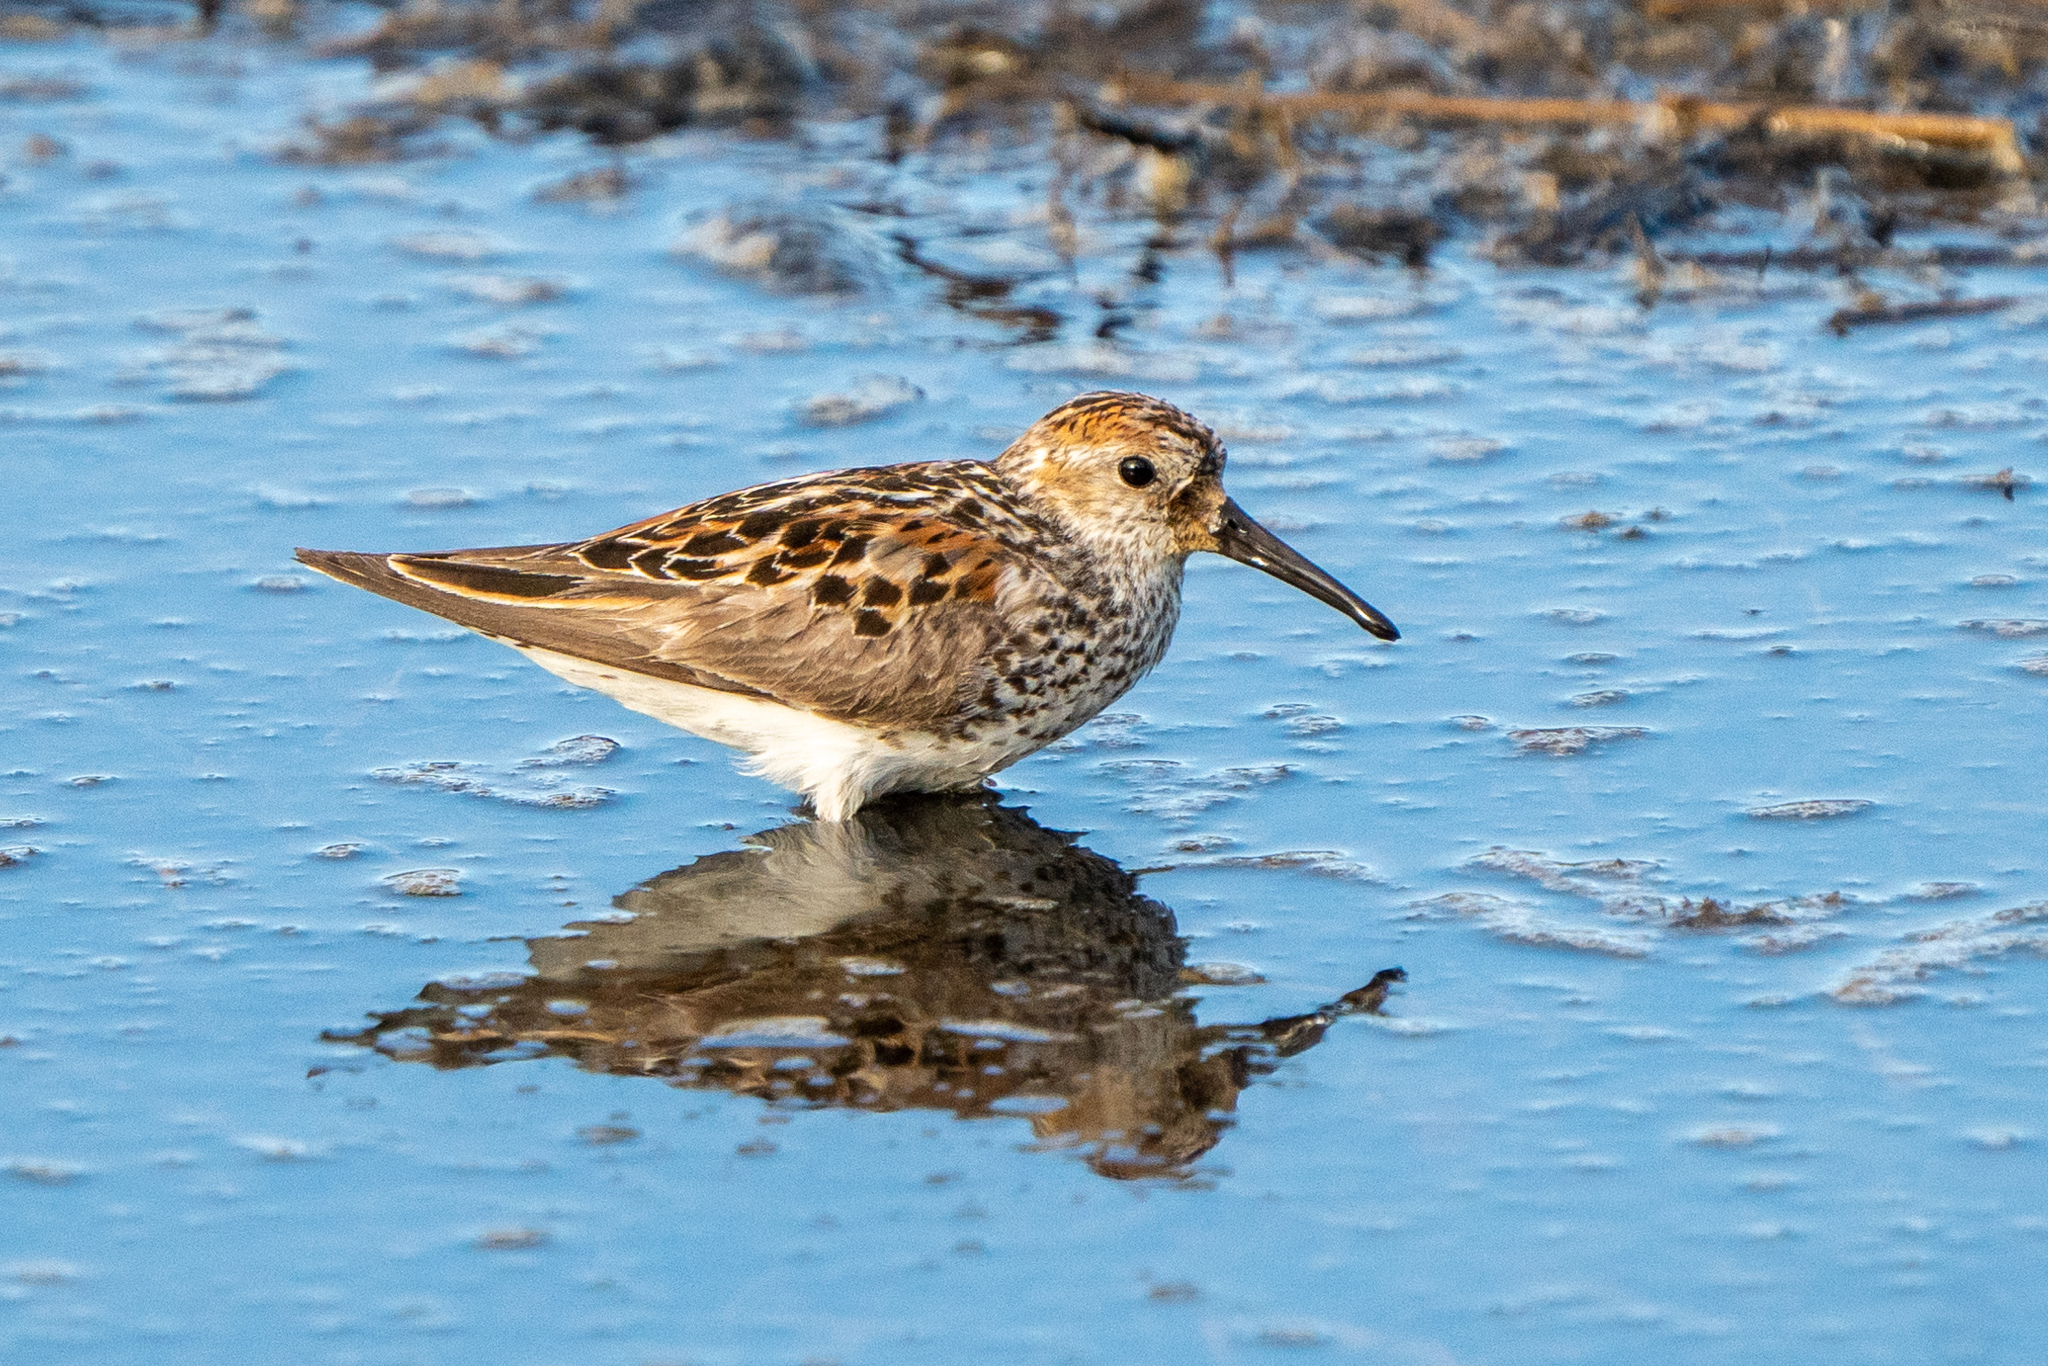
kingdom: Animalia
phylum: Chordata
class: Aves
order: Charadriiformes
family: Scolopacidae
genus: Calidris
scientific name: Calidris mauri
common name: Western sandpiper
